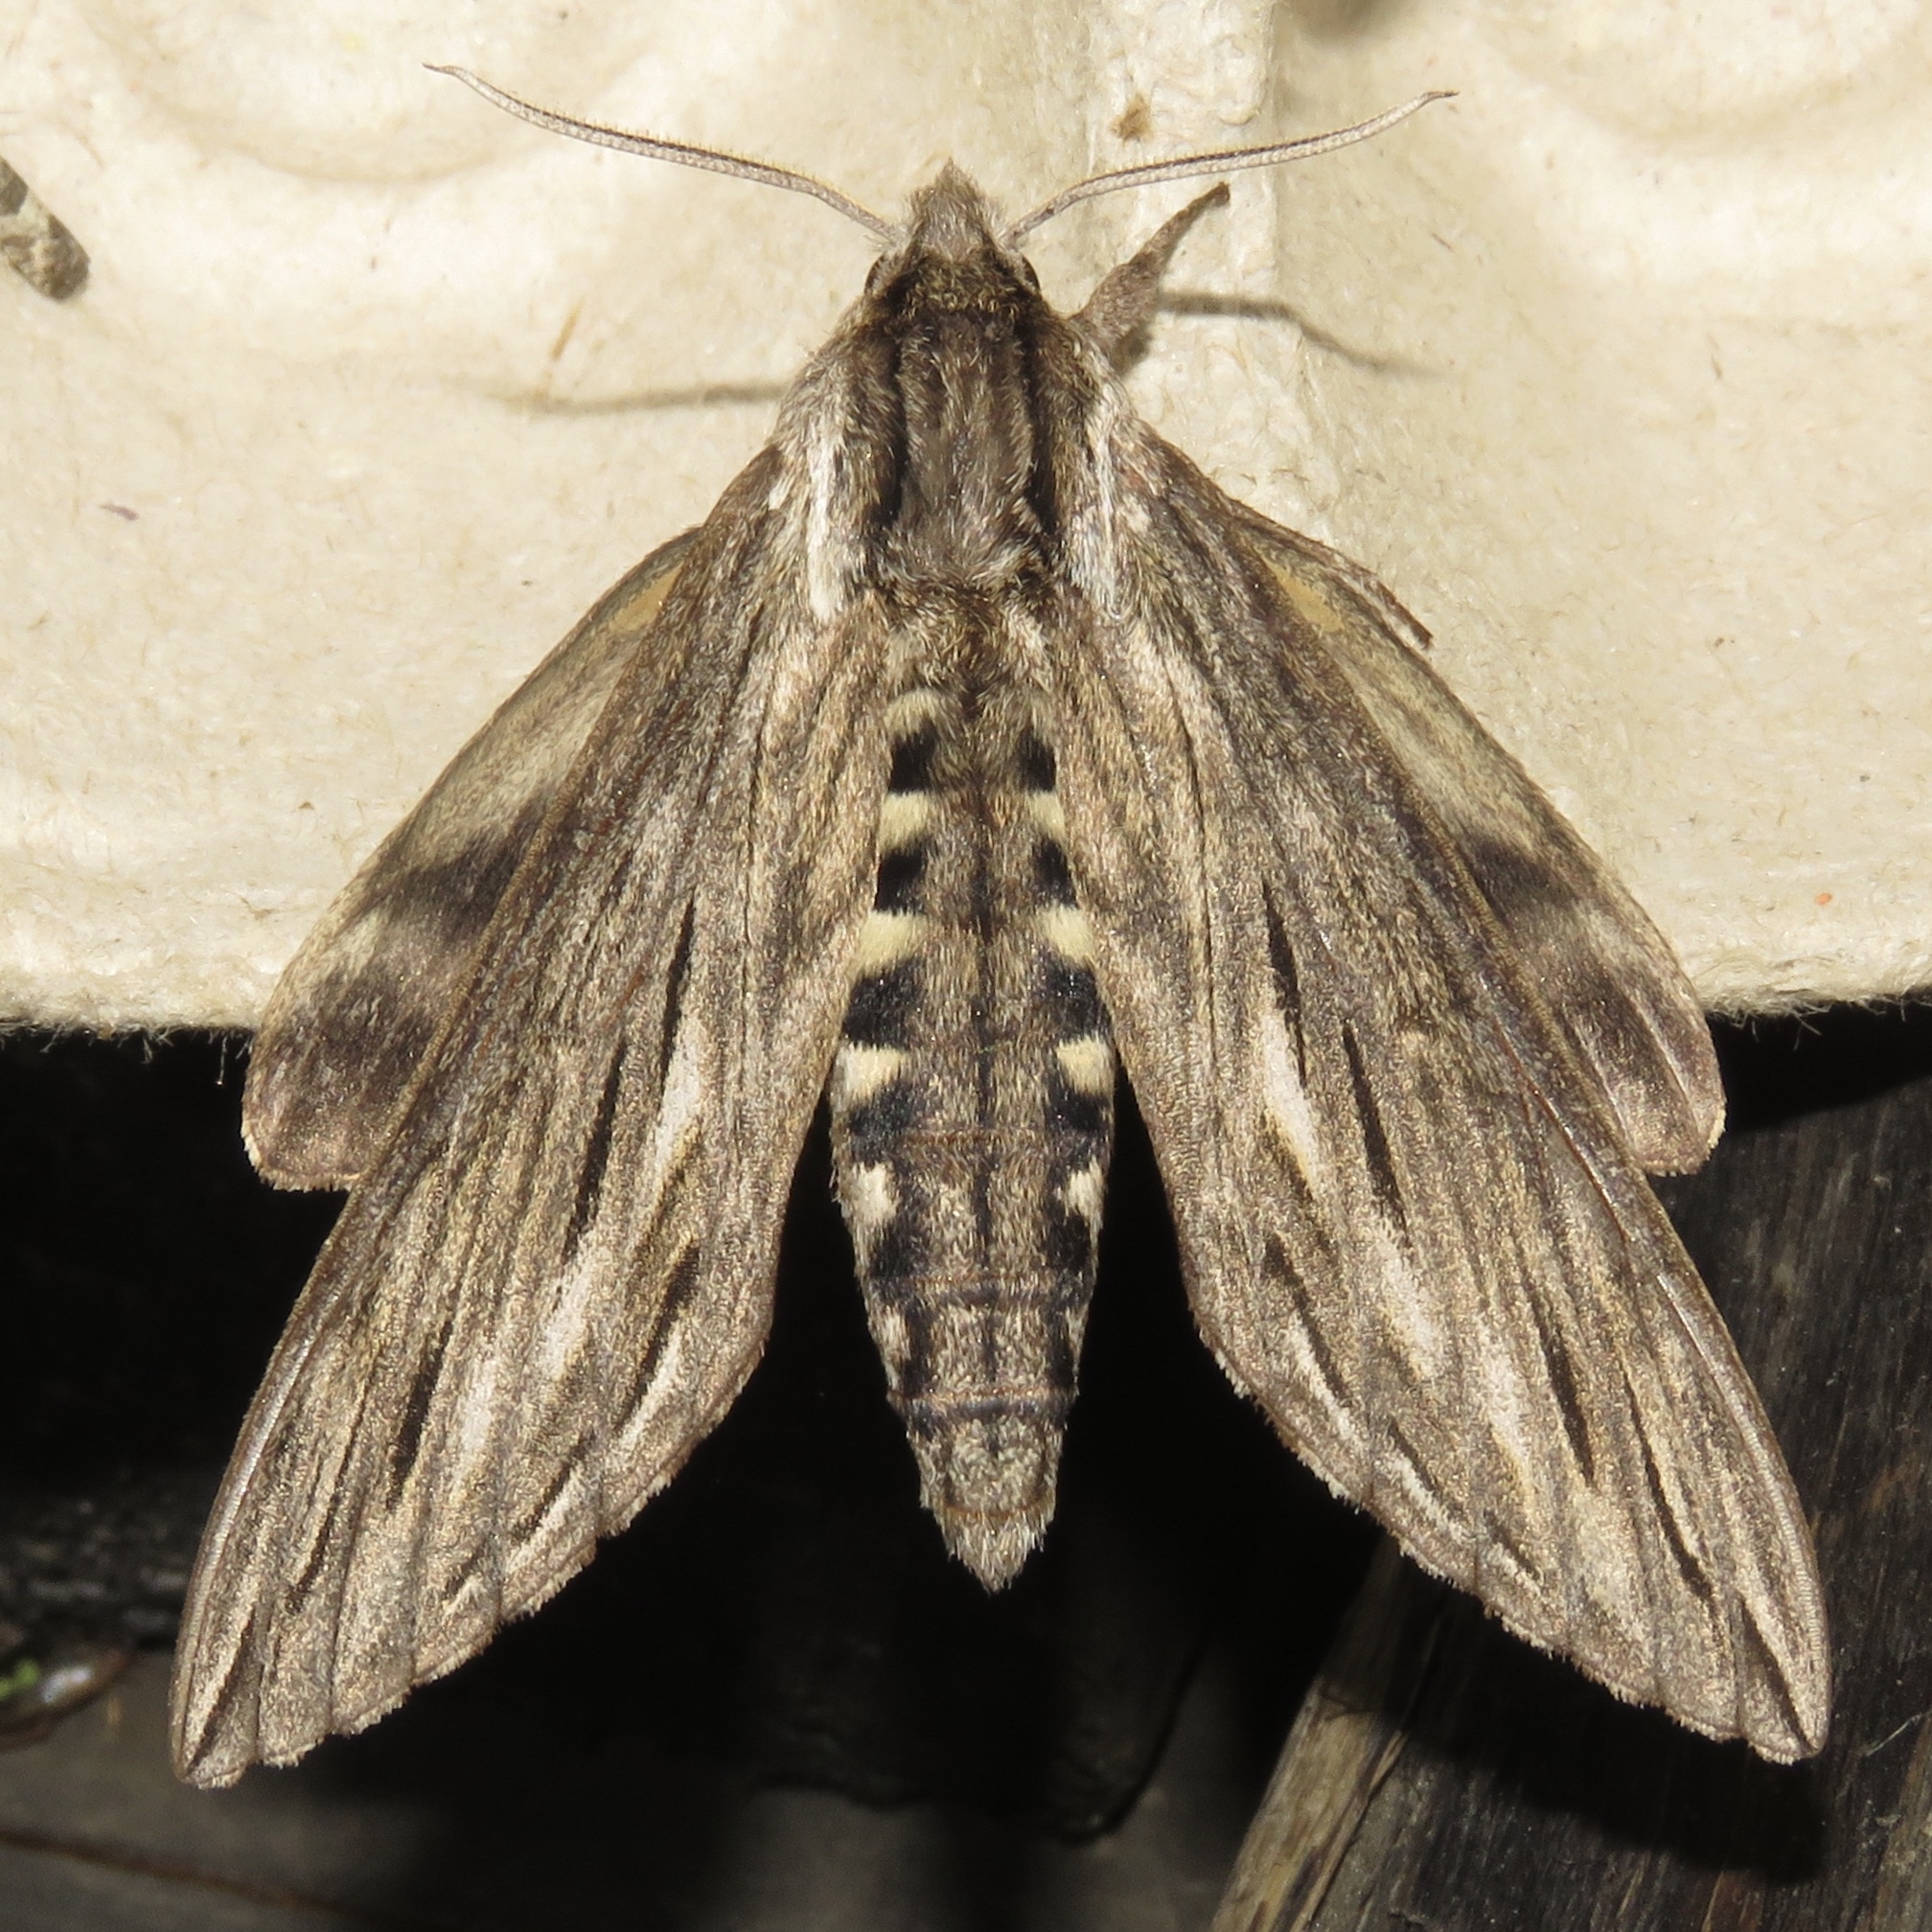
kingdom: Animalia
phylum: Arthropoda
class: Insecta
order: Lepidoptera
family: Sphingidae
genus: Sphinx
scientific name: Sphinx canadensis
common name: Canadian sphinx
